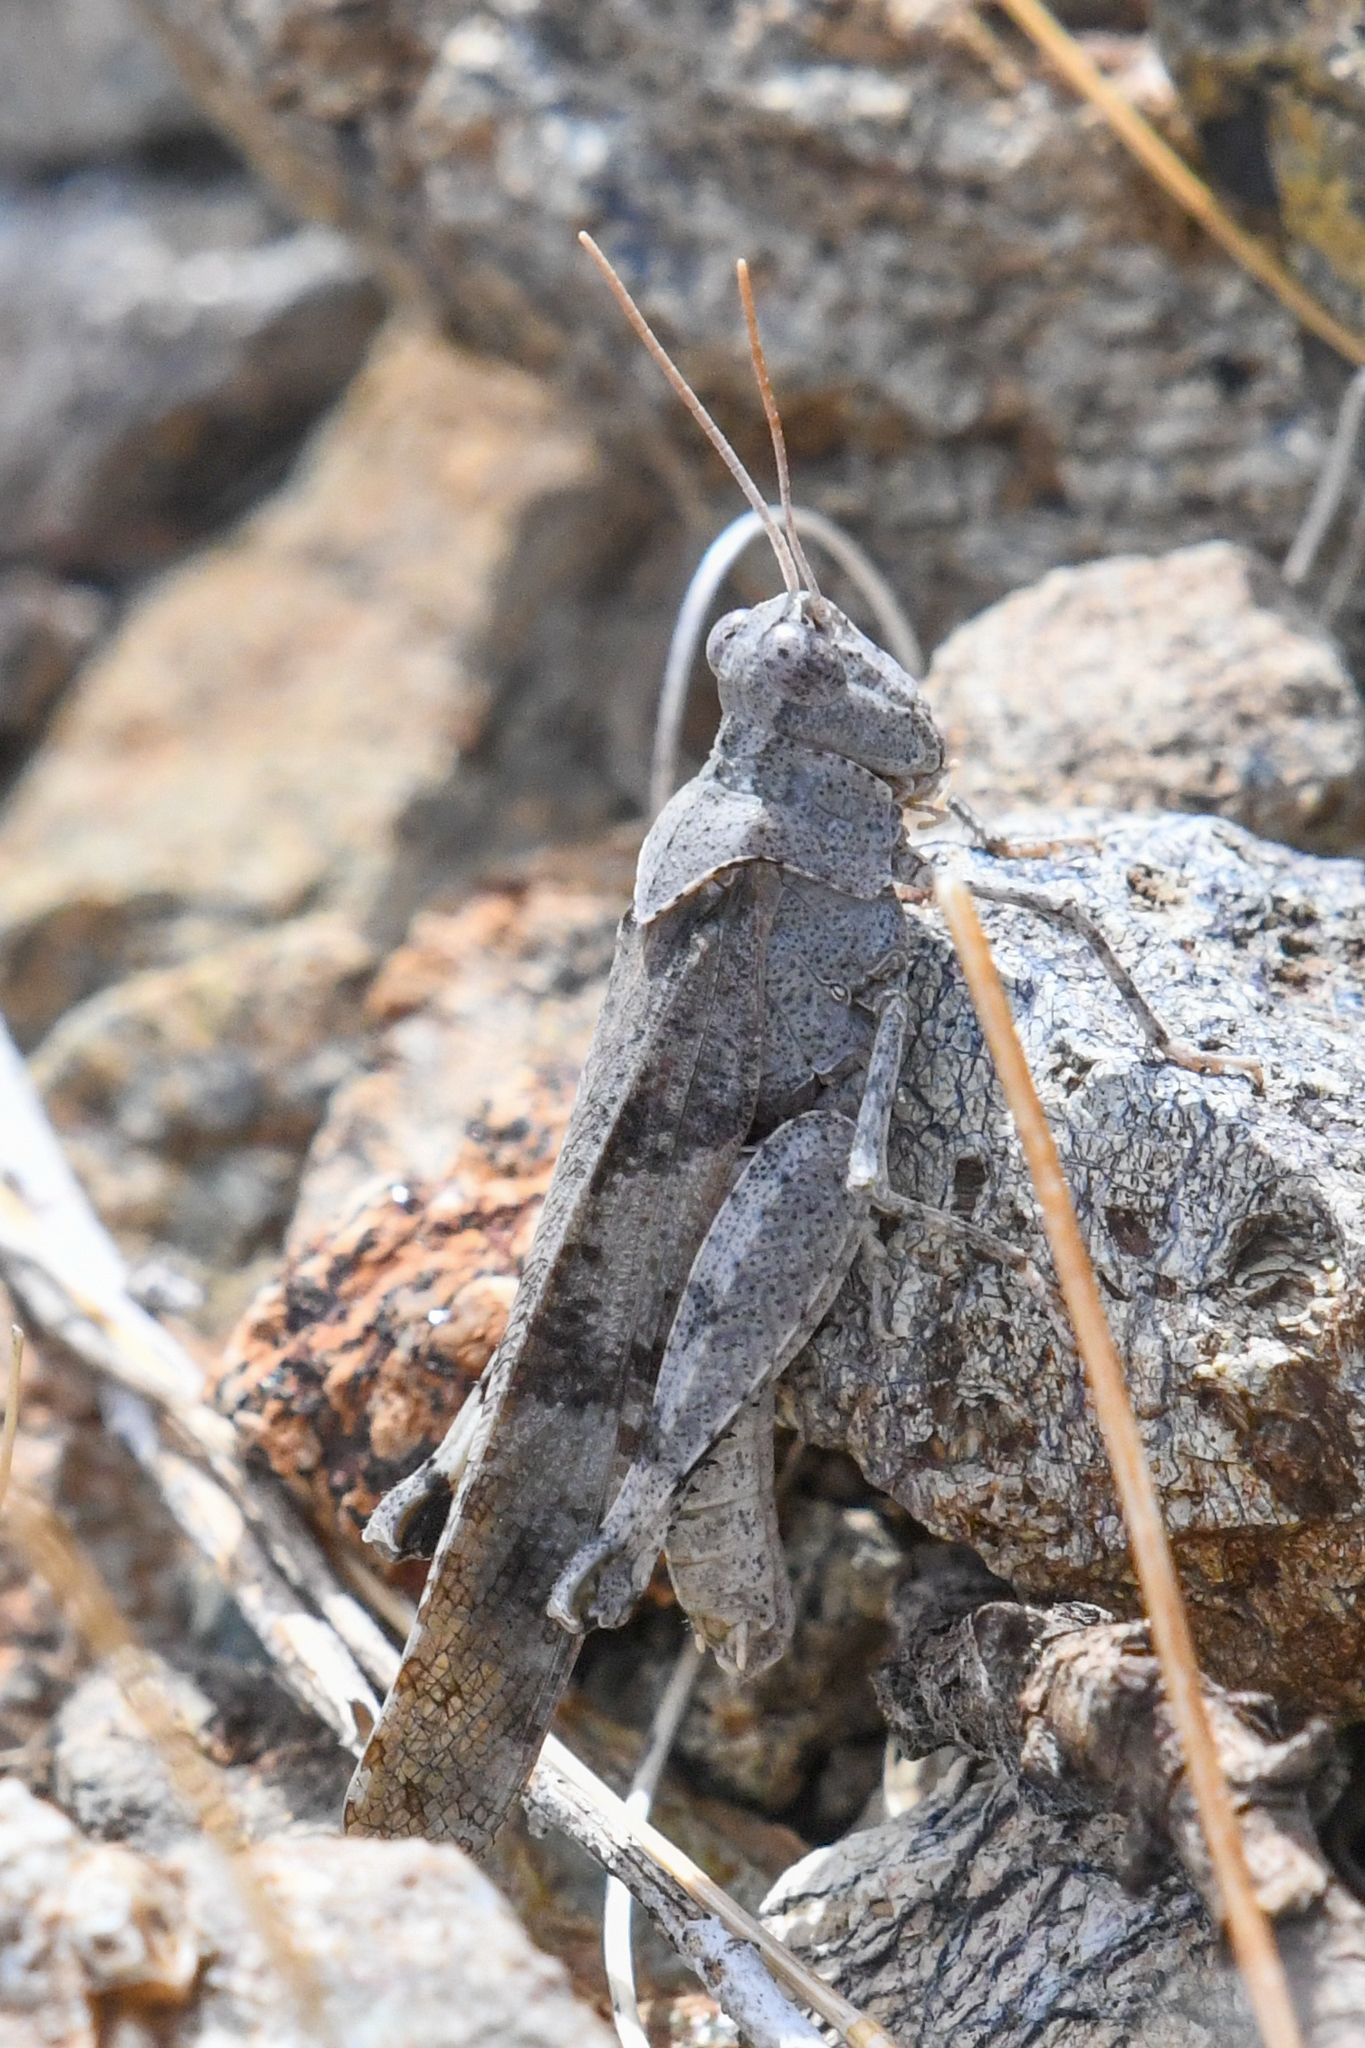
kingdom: Animalia
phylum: Arthropoda
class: Insecta
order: Orthoptera
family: Acrididae
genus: Trimerotropis
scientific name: Trimerotropis thalassica
